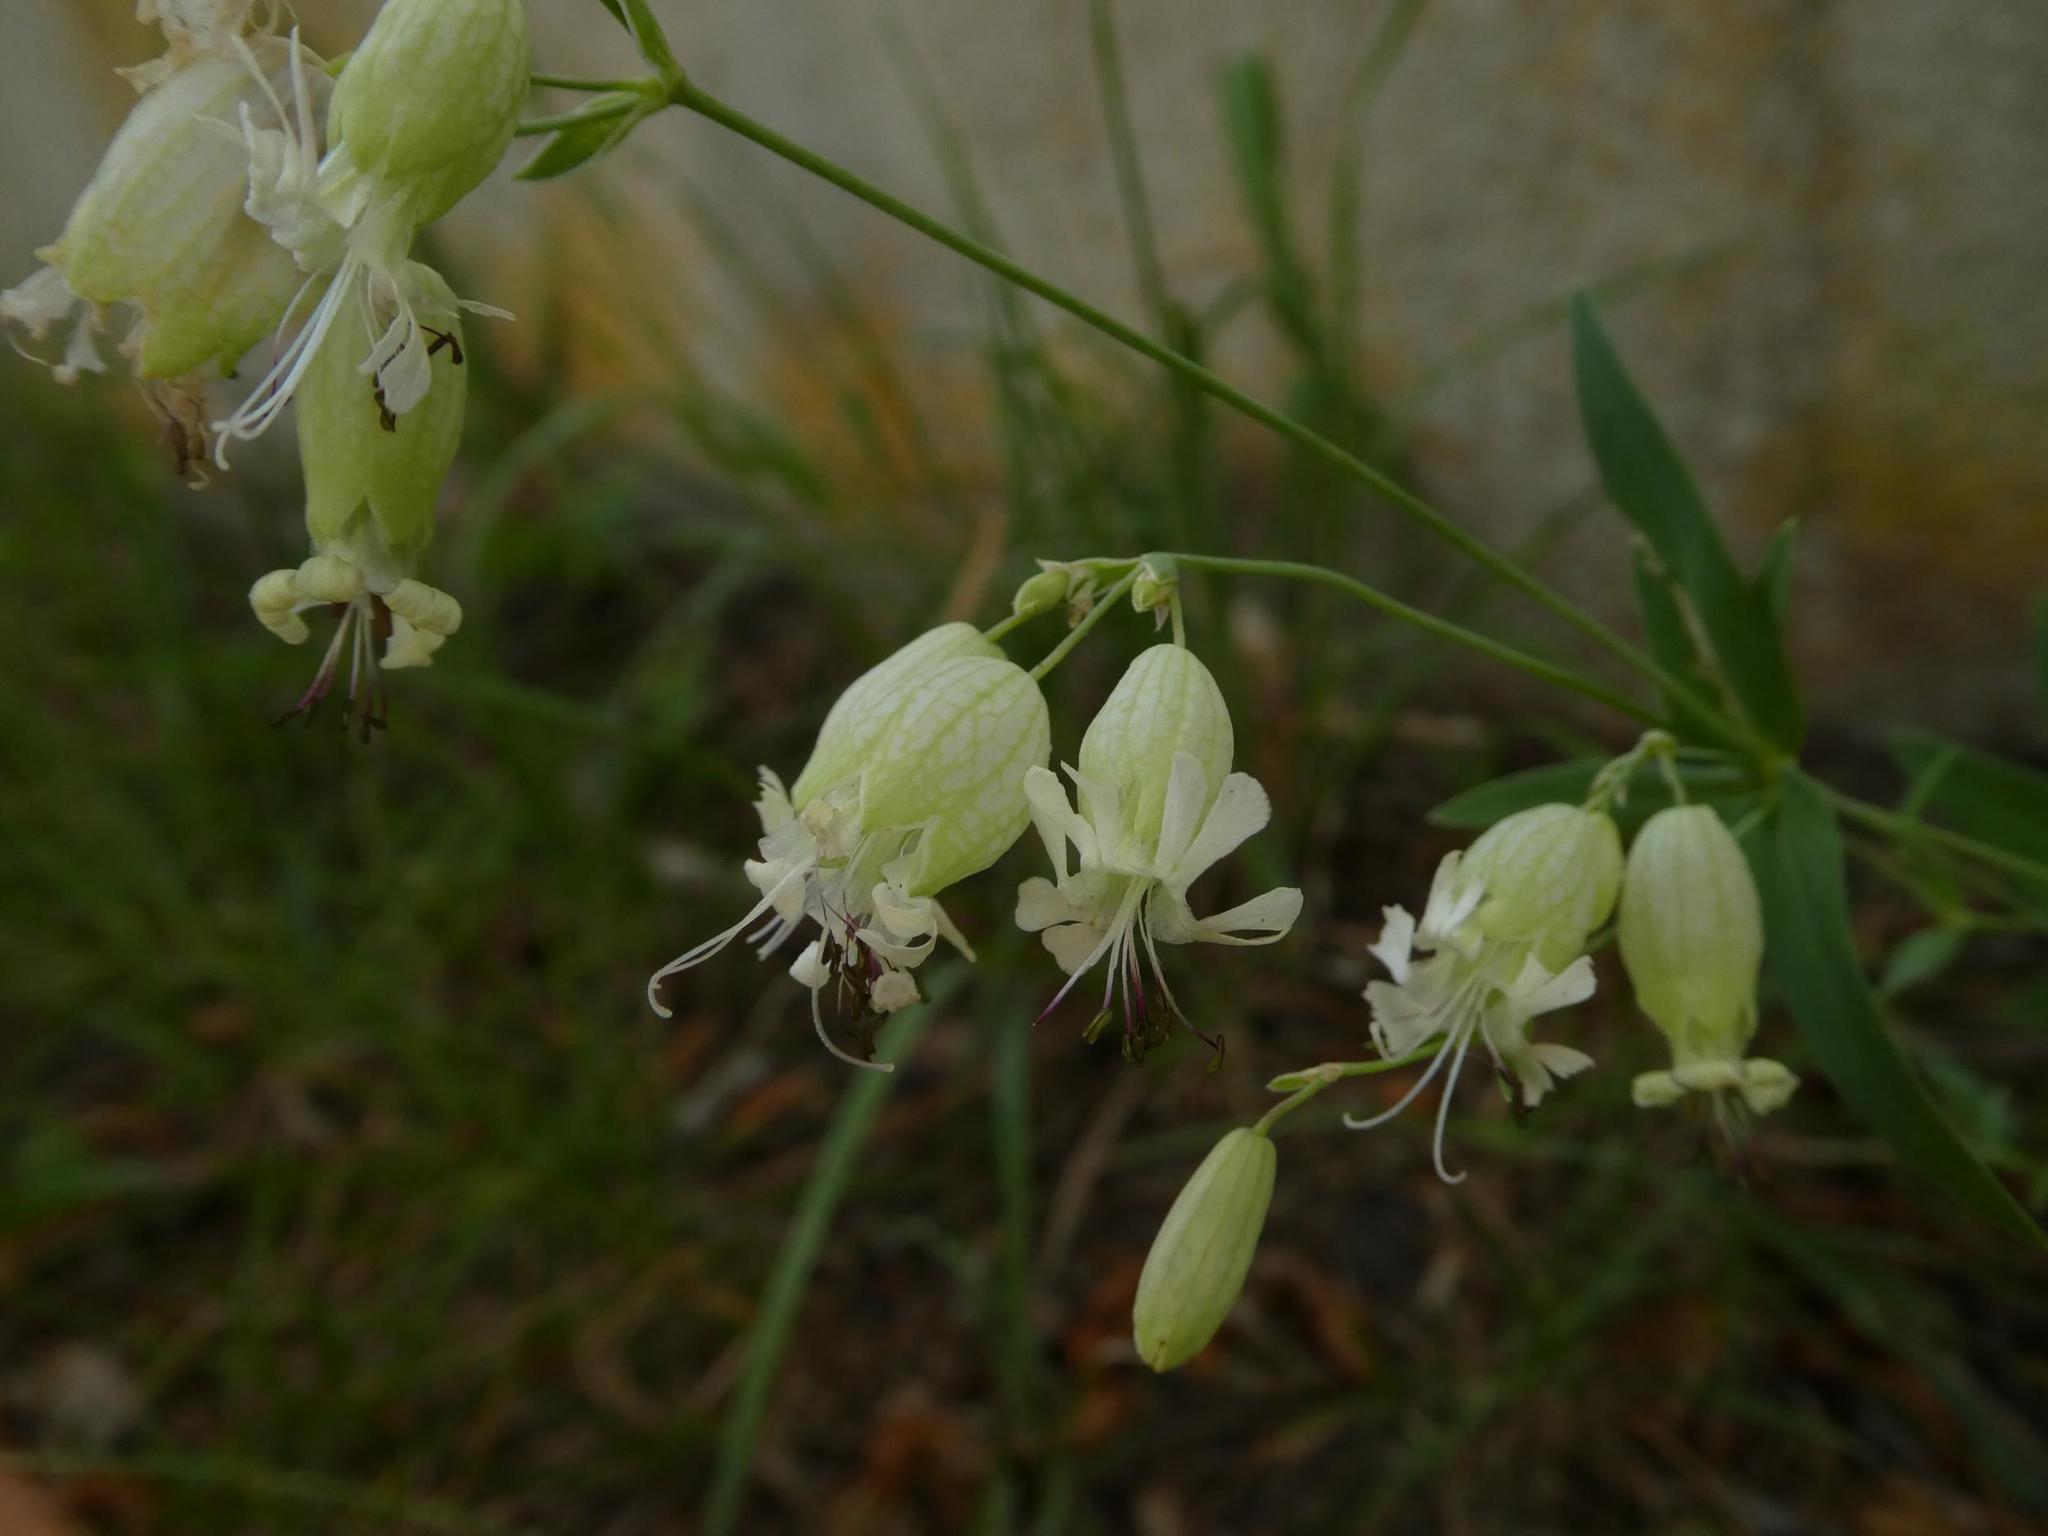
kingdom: Plantae
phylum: Tracheophyta
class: Magnoliopsida
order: Caryophyllales
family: Caryophyllaceae
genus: Silene
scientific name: Silene vulgaris
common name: Bladder campion
